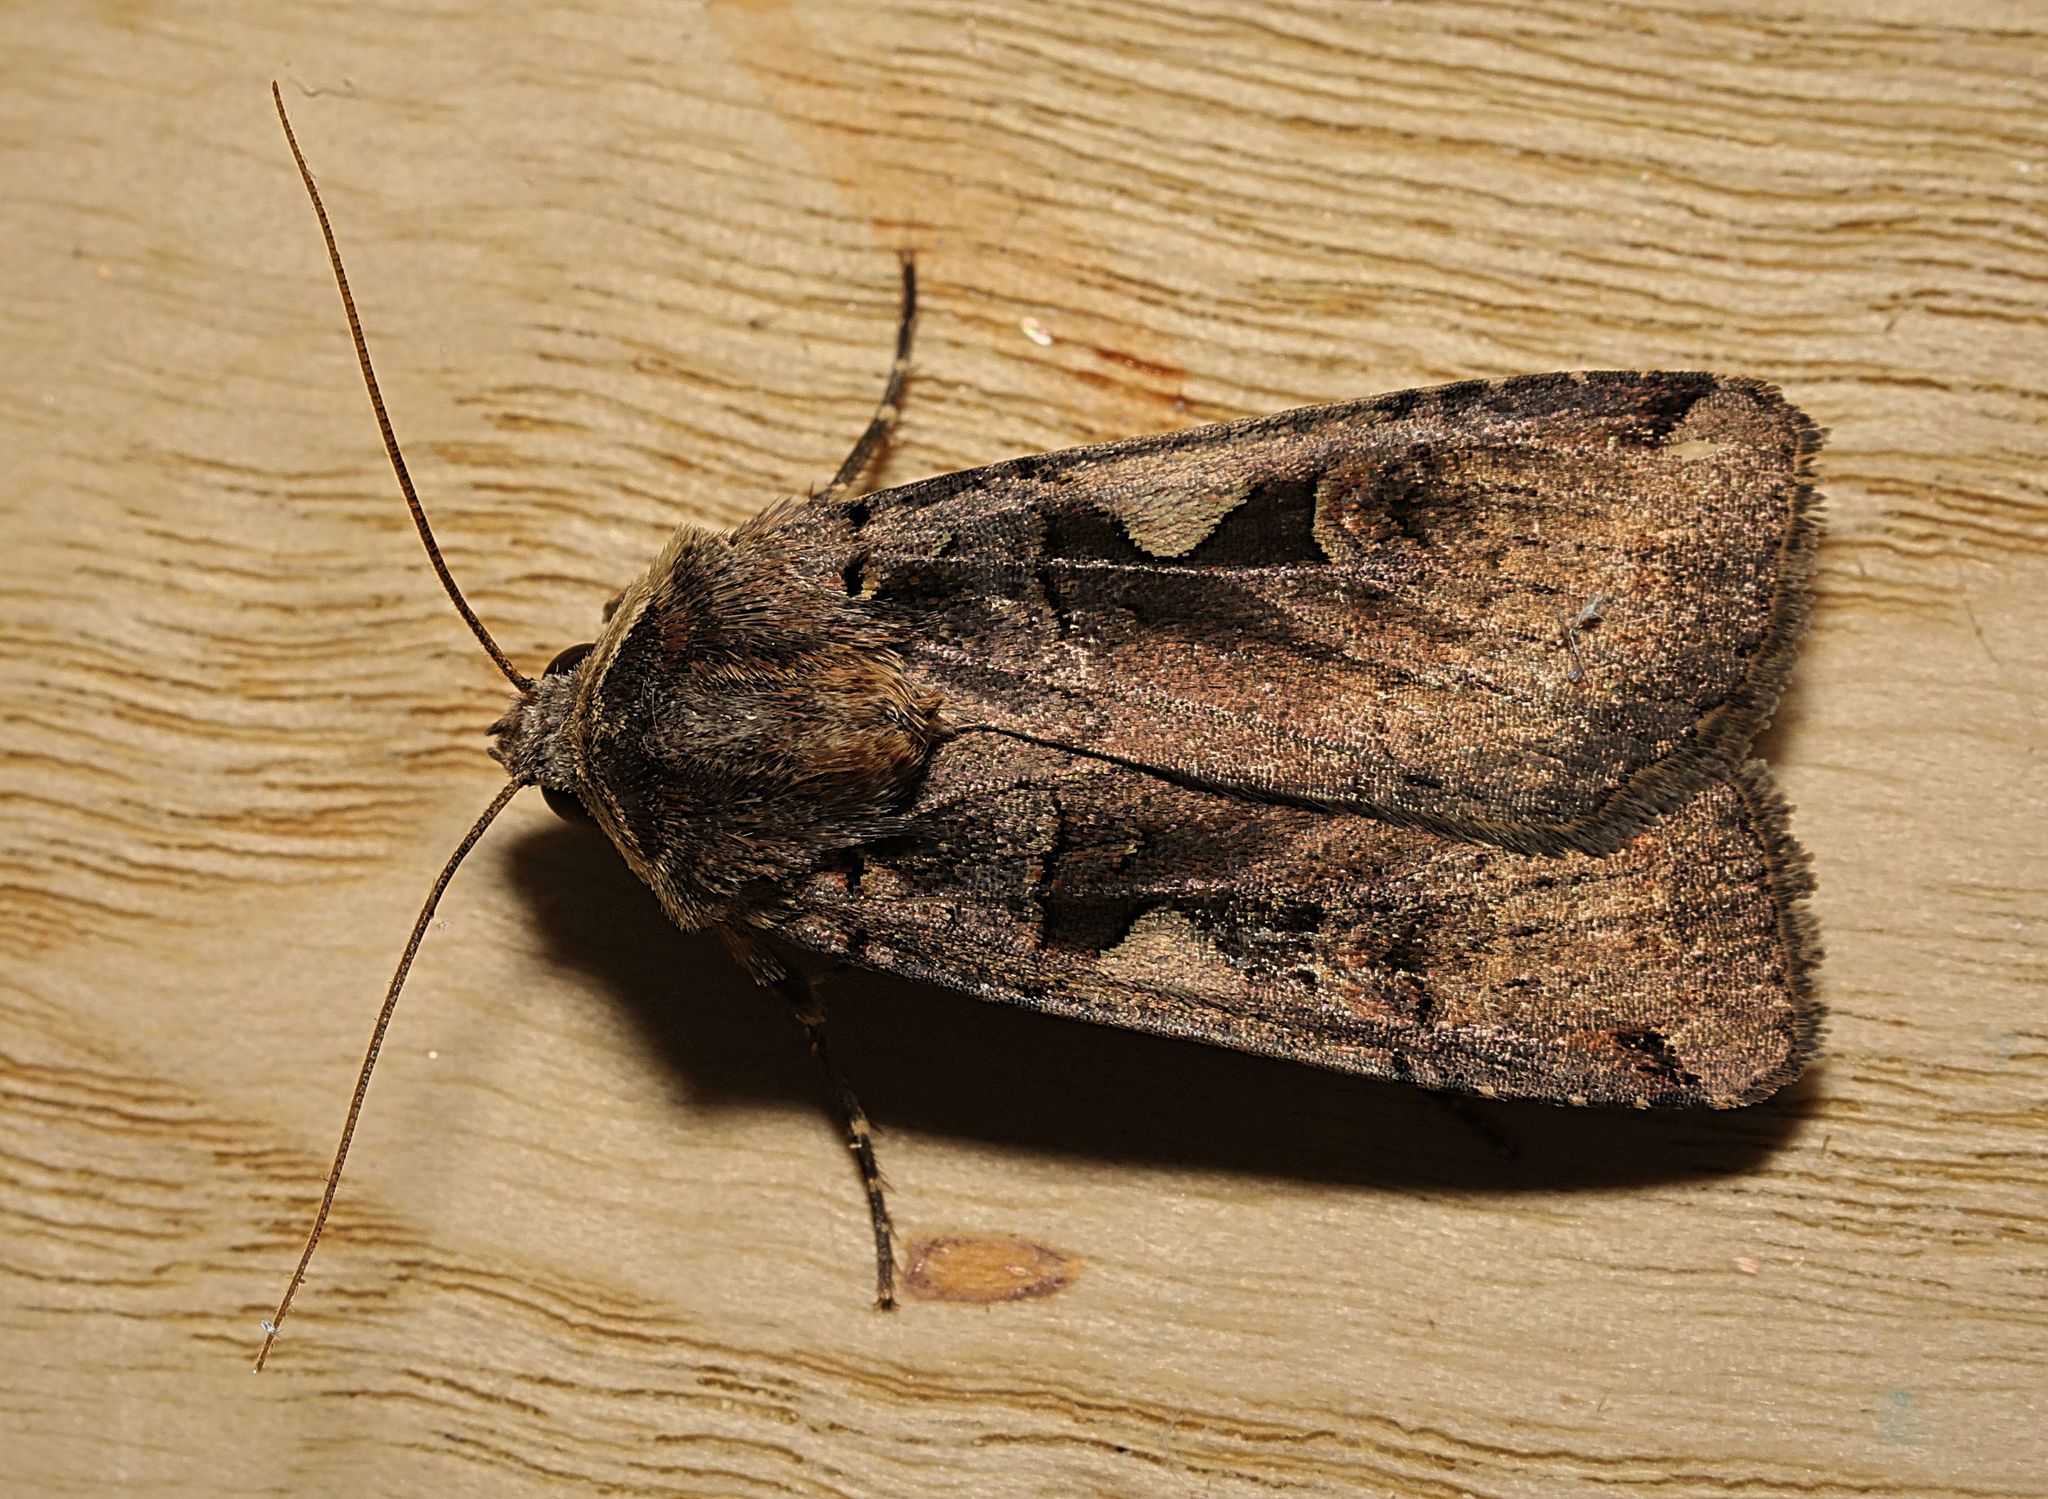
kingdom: Animalia
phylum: Arthropoda
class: Insecta
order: Lepidoptera
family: Noctuidae
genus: Xestia
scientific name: Xestia c-nigrum
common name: Setaceous hebrew character
